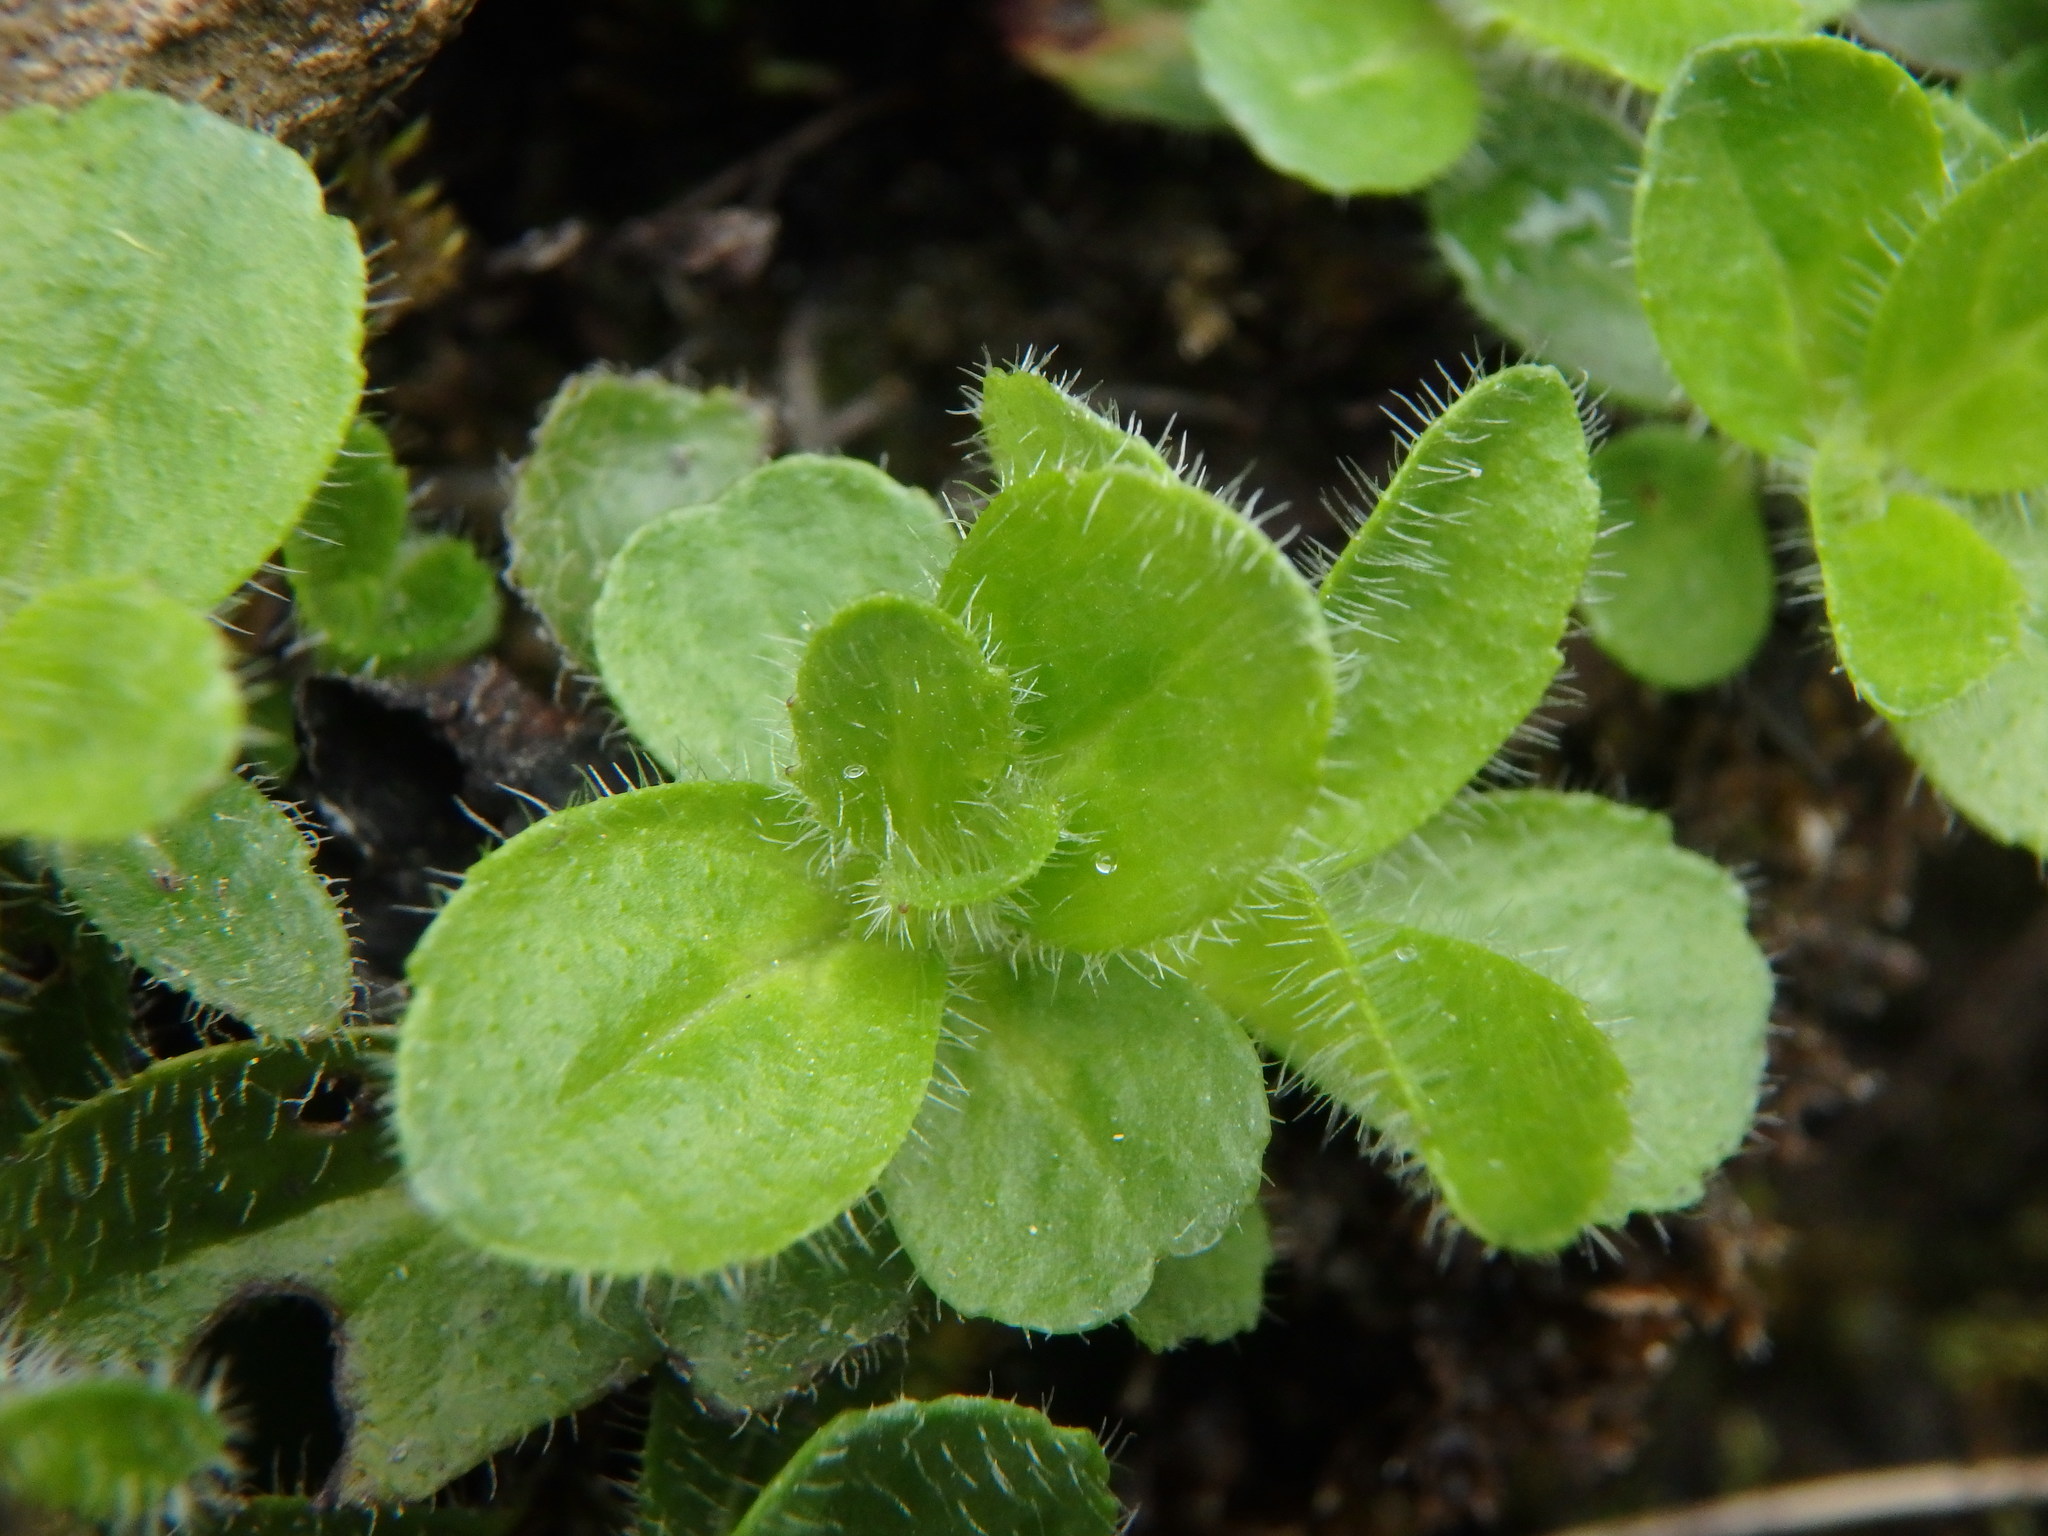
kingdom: Plantae
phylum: Tracheophyta
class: Magnoliopsida
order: Lamiales
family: Plantaginaceae
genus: Veronica
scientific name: Veronica aphylla
